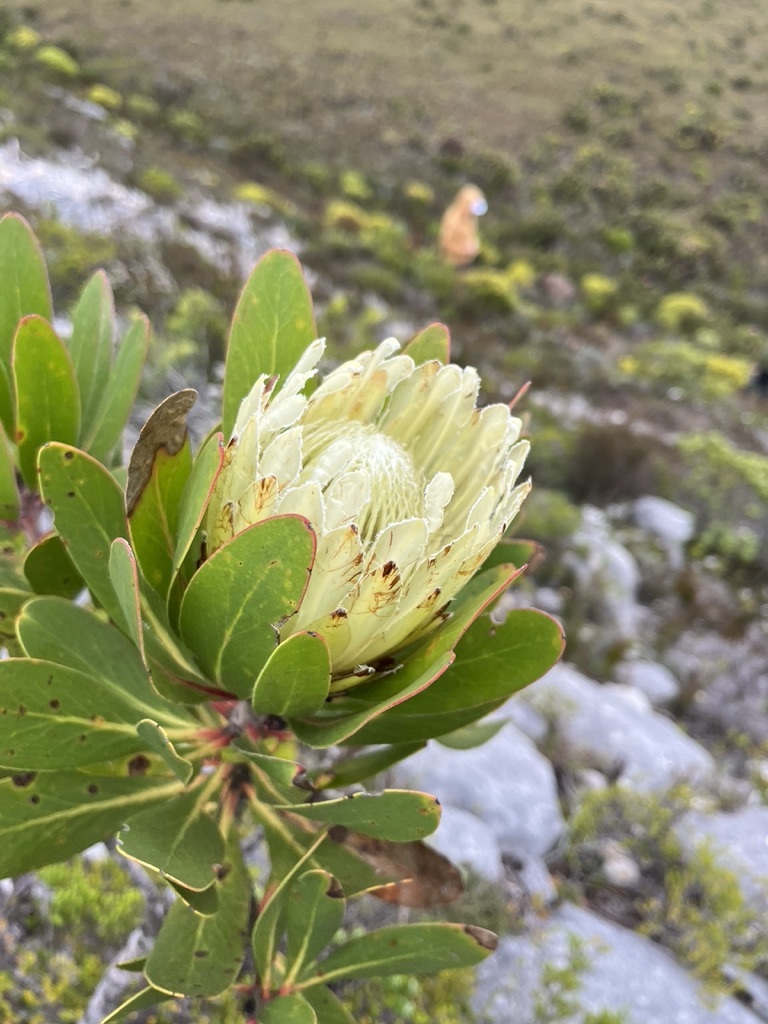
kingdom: Plantae
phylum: Tracheophyta
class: Magnoliopsida
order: Proteales
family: Proteaceae
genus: Protea
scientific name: Protea obtusifolia
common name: Bredasdorp sugarbush
